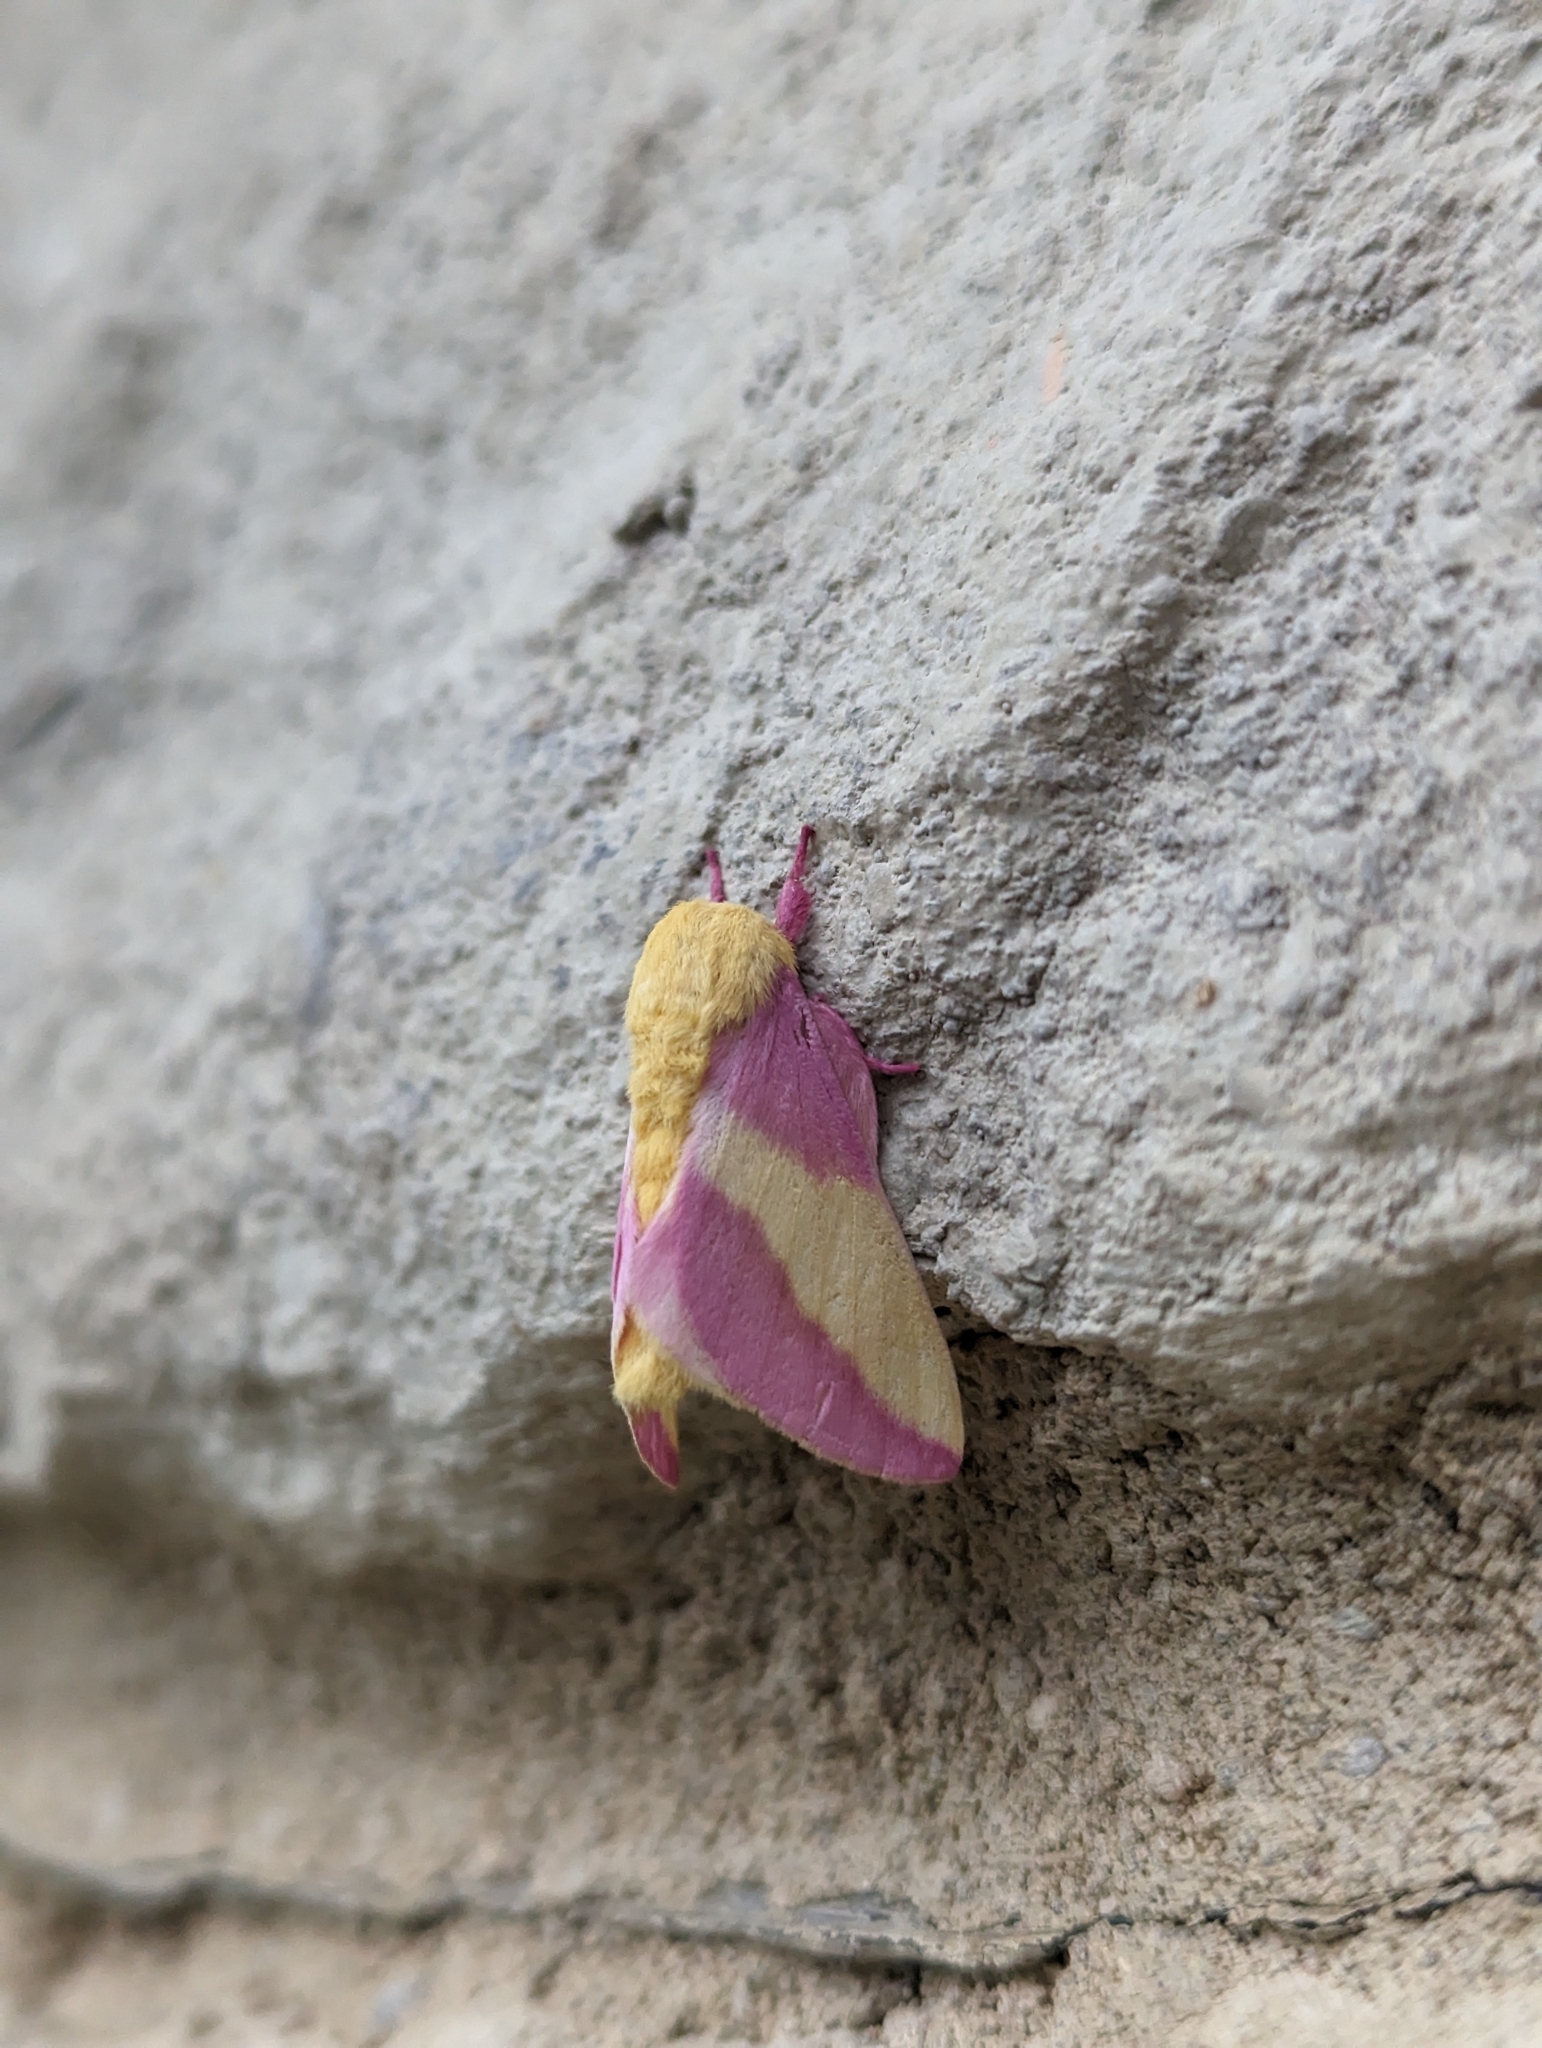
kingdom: Animalia
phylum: Arthropoda
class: Insecta
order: Lepidoptera
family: Saturniidae
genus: Dryocampa
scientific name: Dryocampa rubicunda
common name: Rosy maple moth
